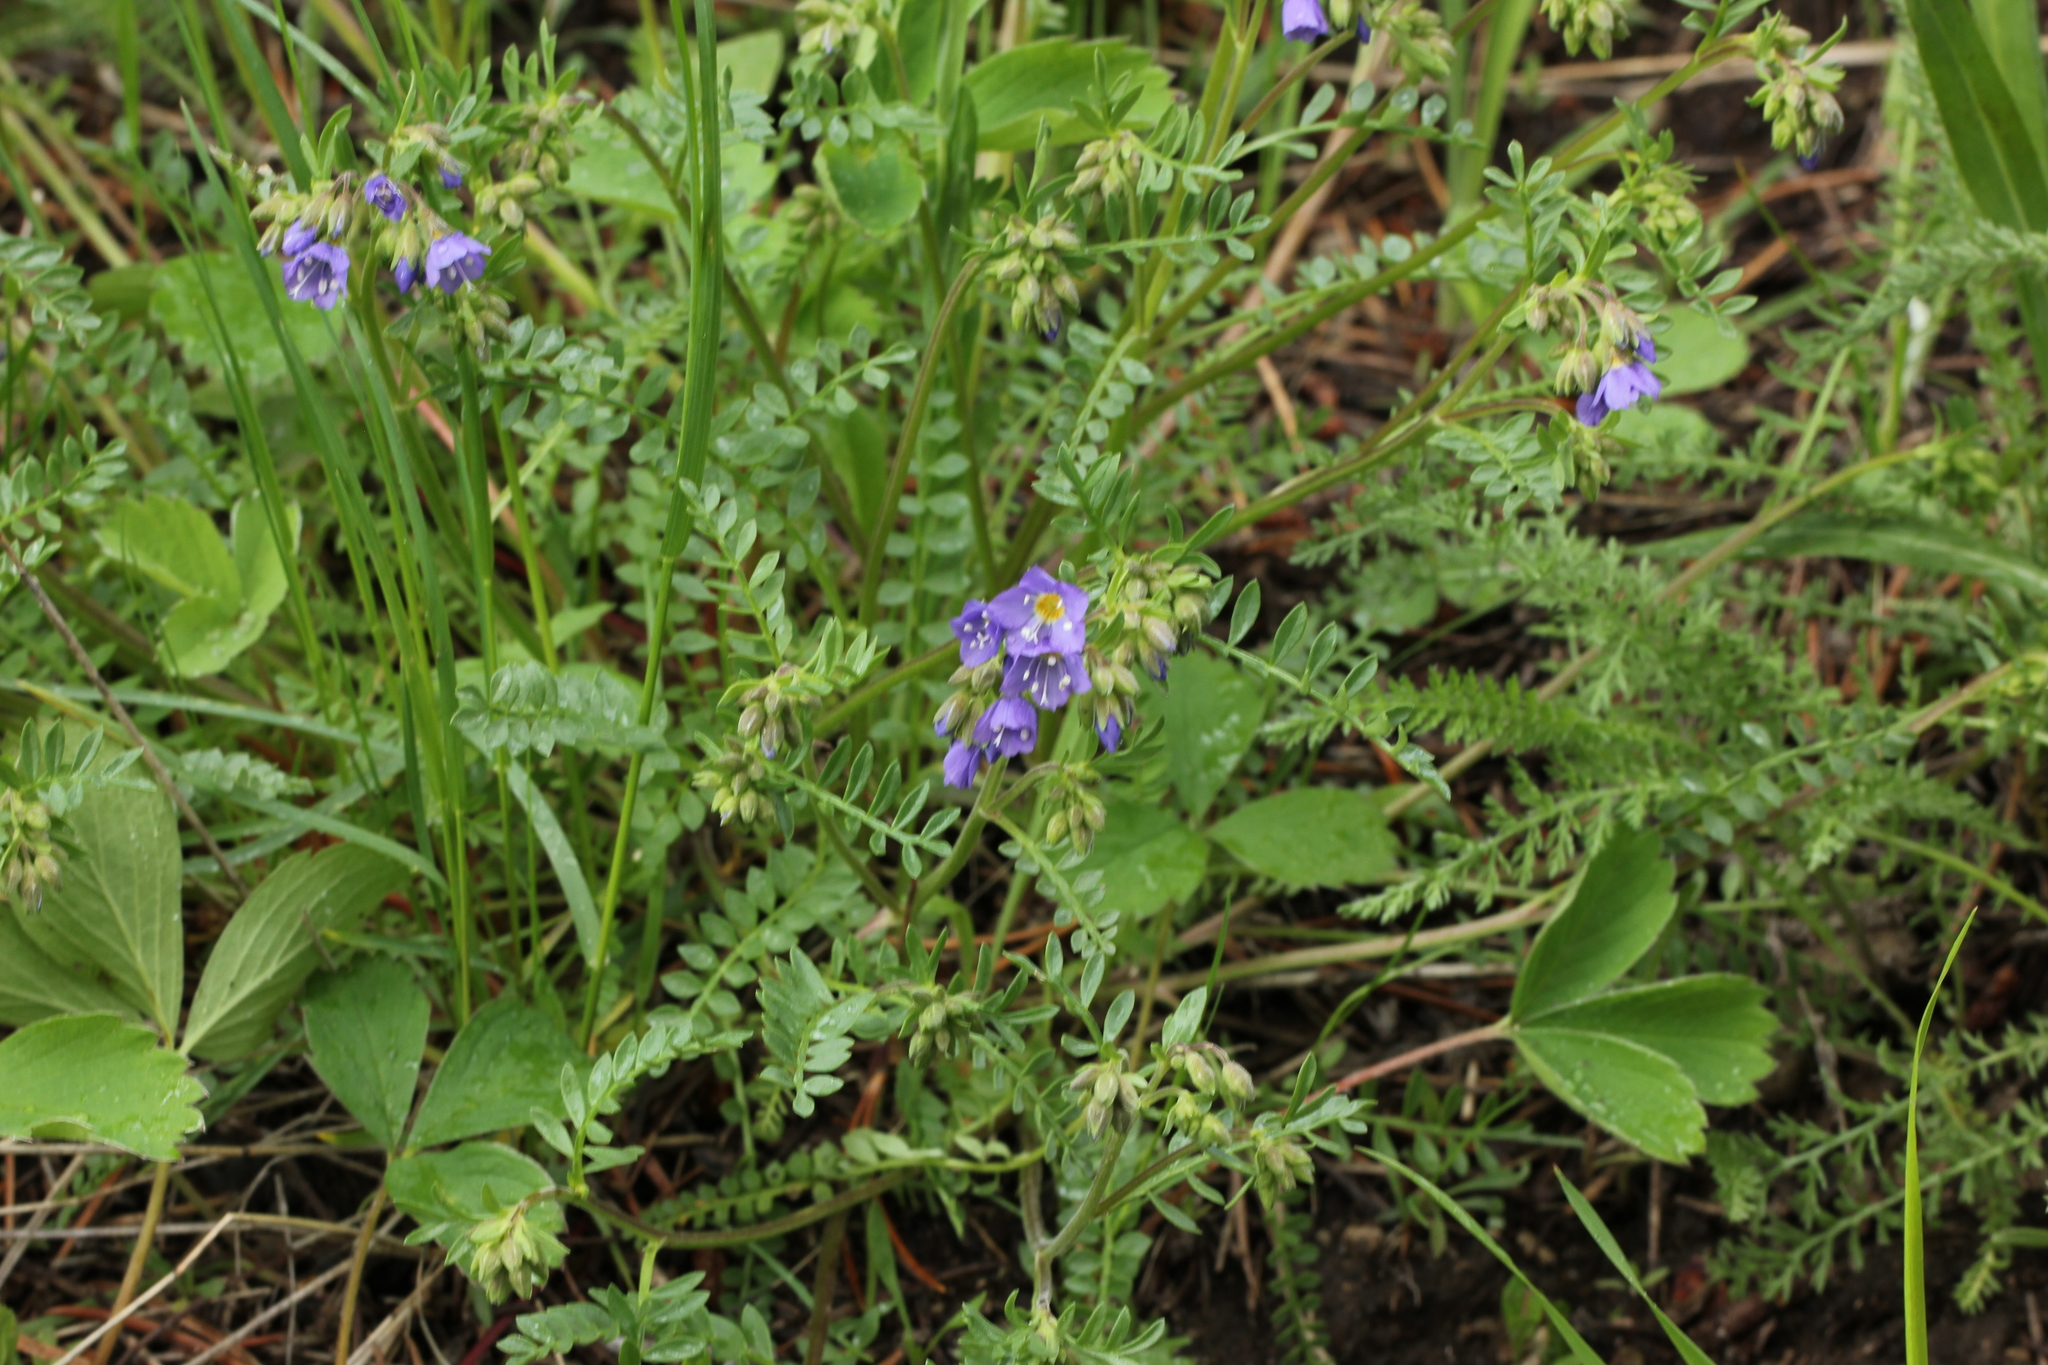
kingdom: Plantae
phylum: Tracheophyta
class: Magnoliopsida
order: Ericales
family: Polemoniaceae
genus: Polemonium
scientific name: Polemonium pulcherrimum
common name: Short jacob's-ladder
